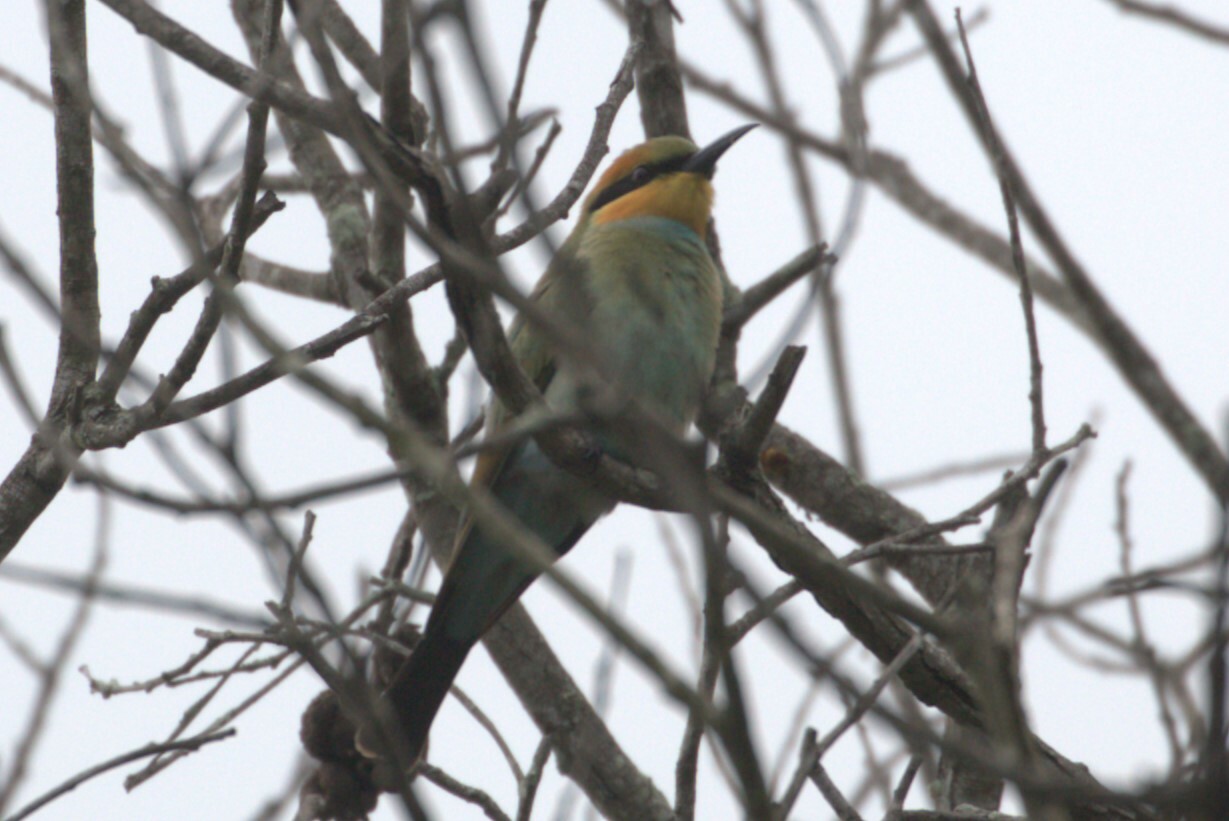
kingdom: Animalia
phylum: Chordata
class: Aves
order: Coraciiformes
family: Meropidae
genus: Merops
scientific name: Merops ornatus
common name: Rainbow bee-eater
